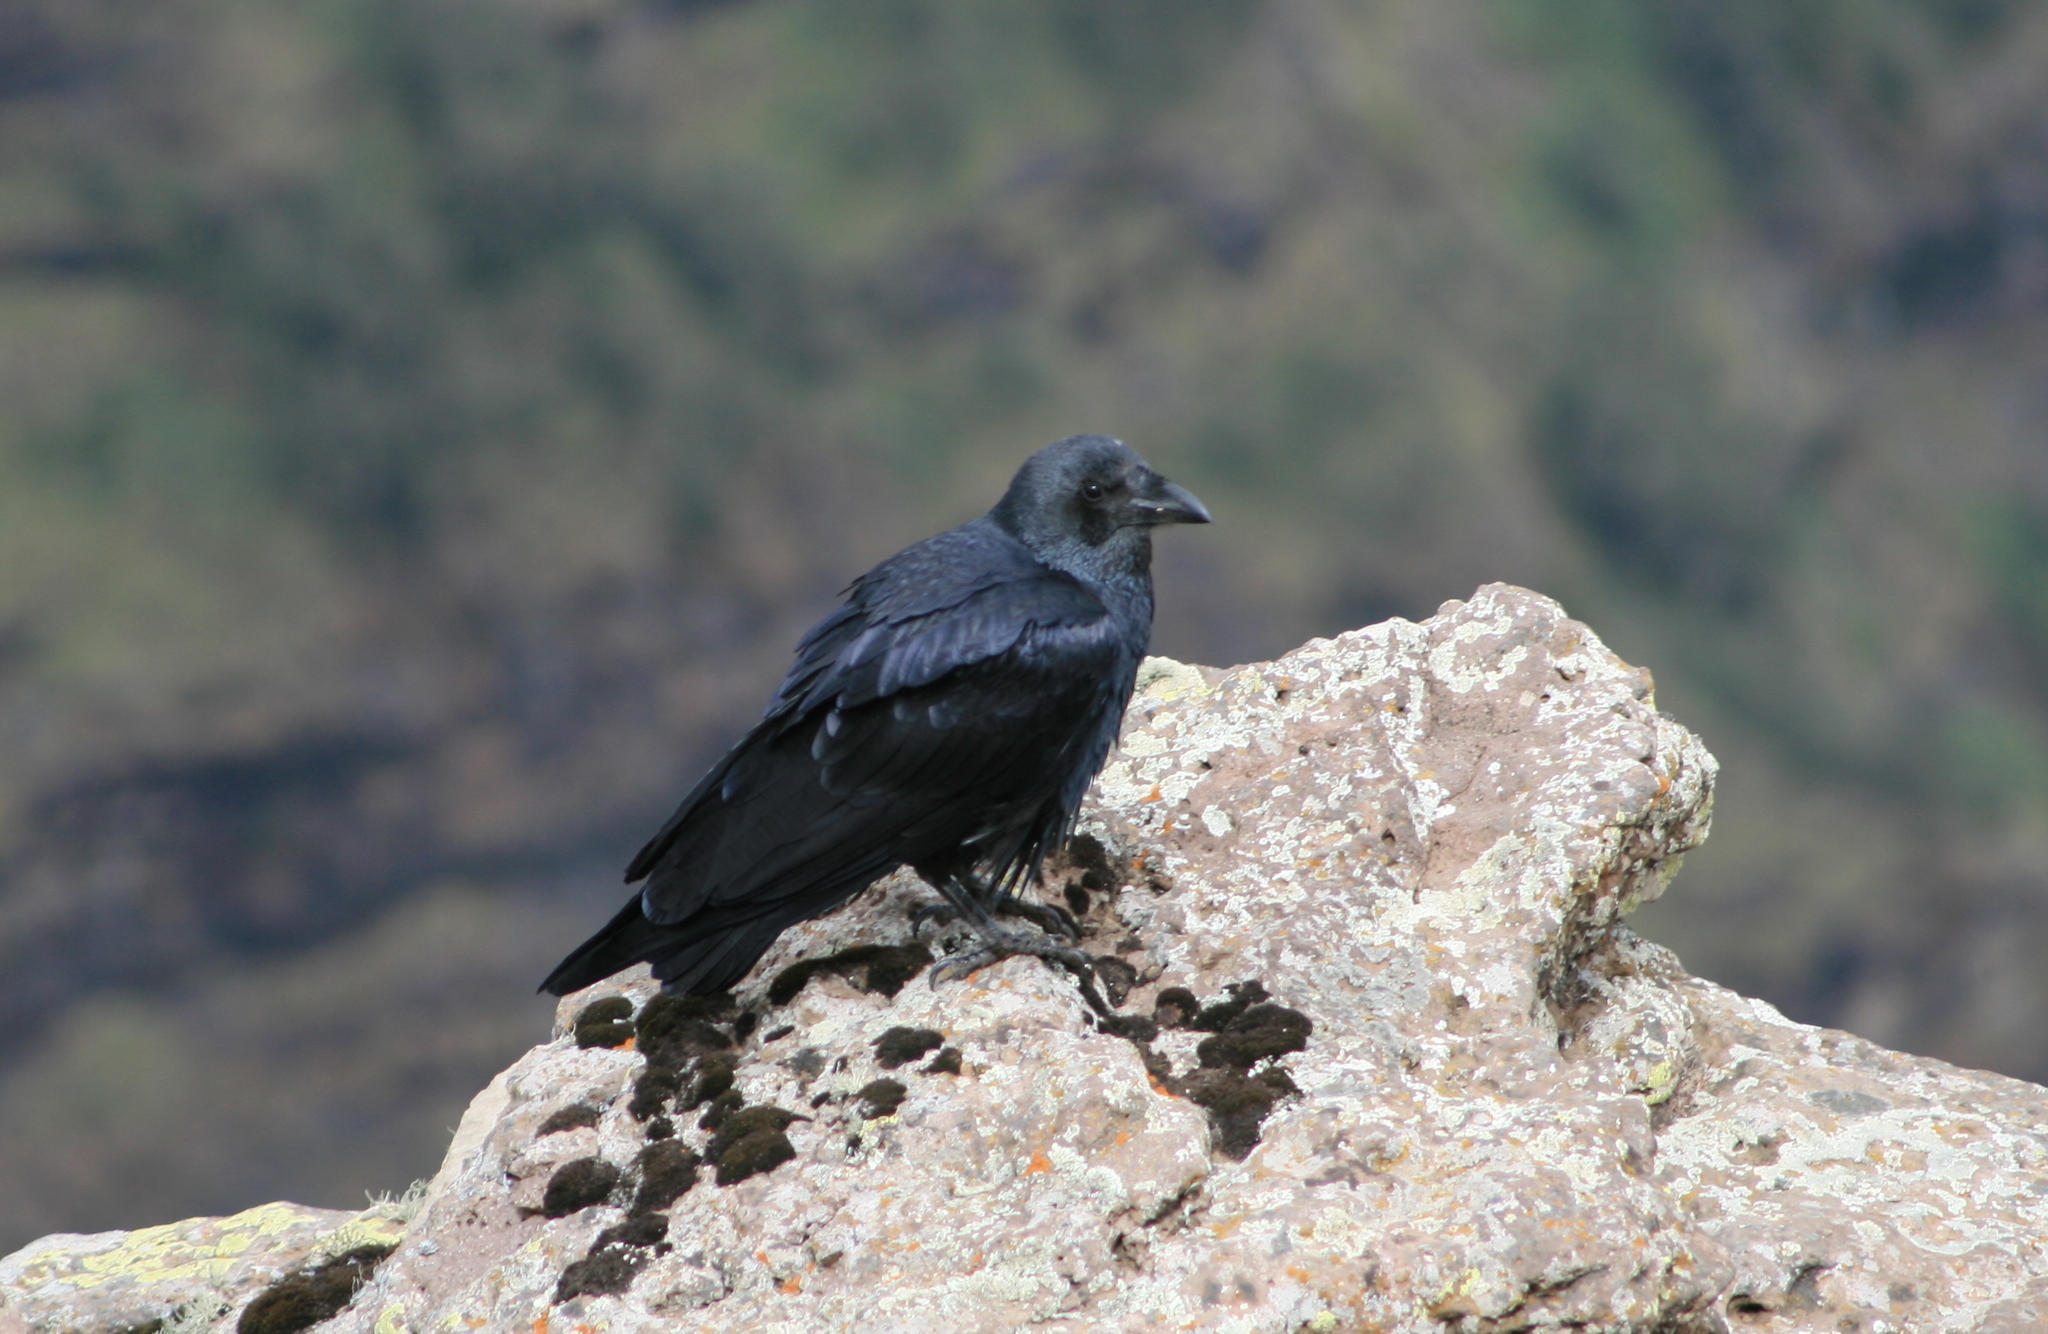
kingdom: Animalia
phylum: Chordata
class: Aves
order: Passeriformes
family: Corvidae
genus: Corvus
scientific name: Corvus rhipidurus
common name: Fan-tailed raven
